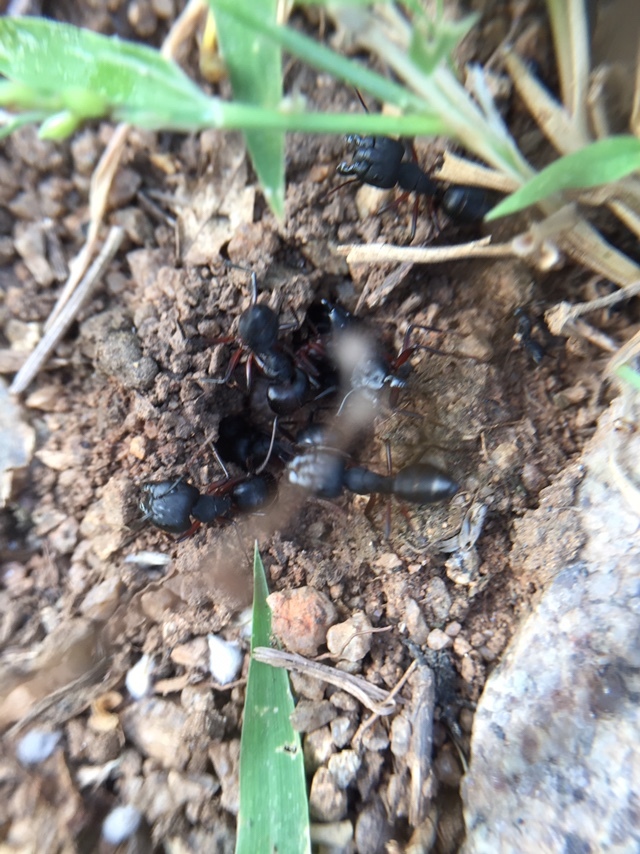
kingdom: Animalia
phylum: Arthropoda
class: Insecta
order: Hymenoptera
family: Formicidae
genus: Camponotus
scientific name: Camponotus compressus
